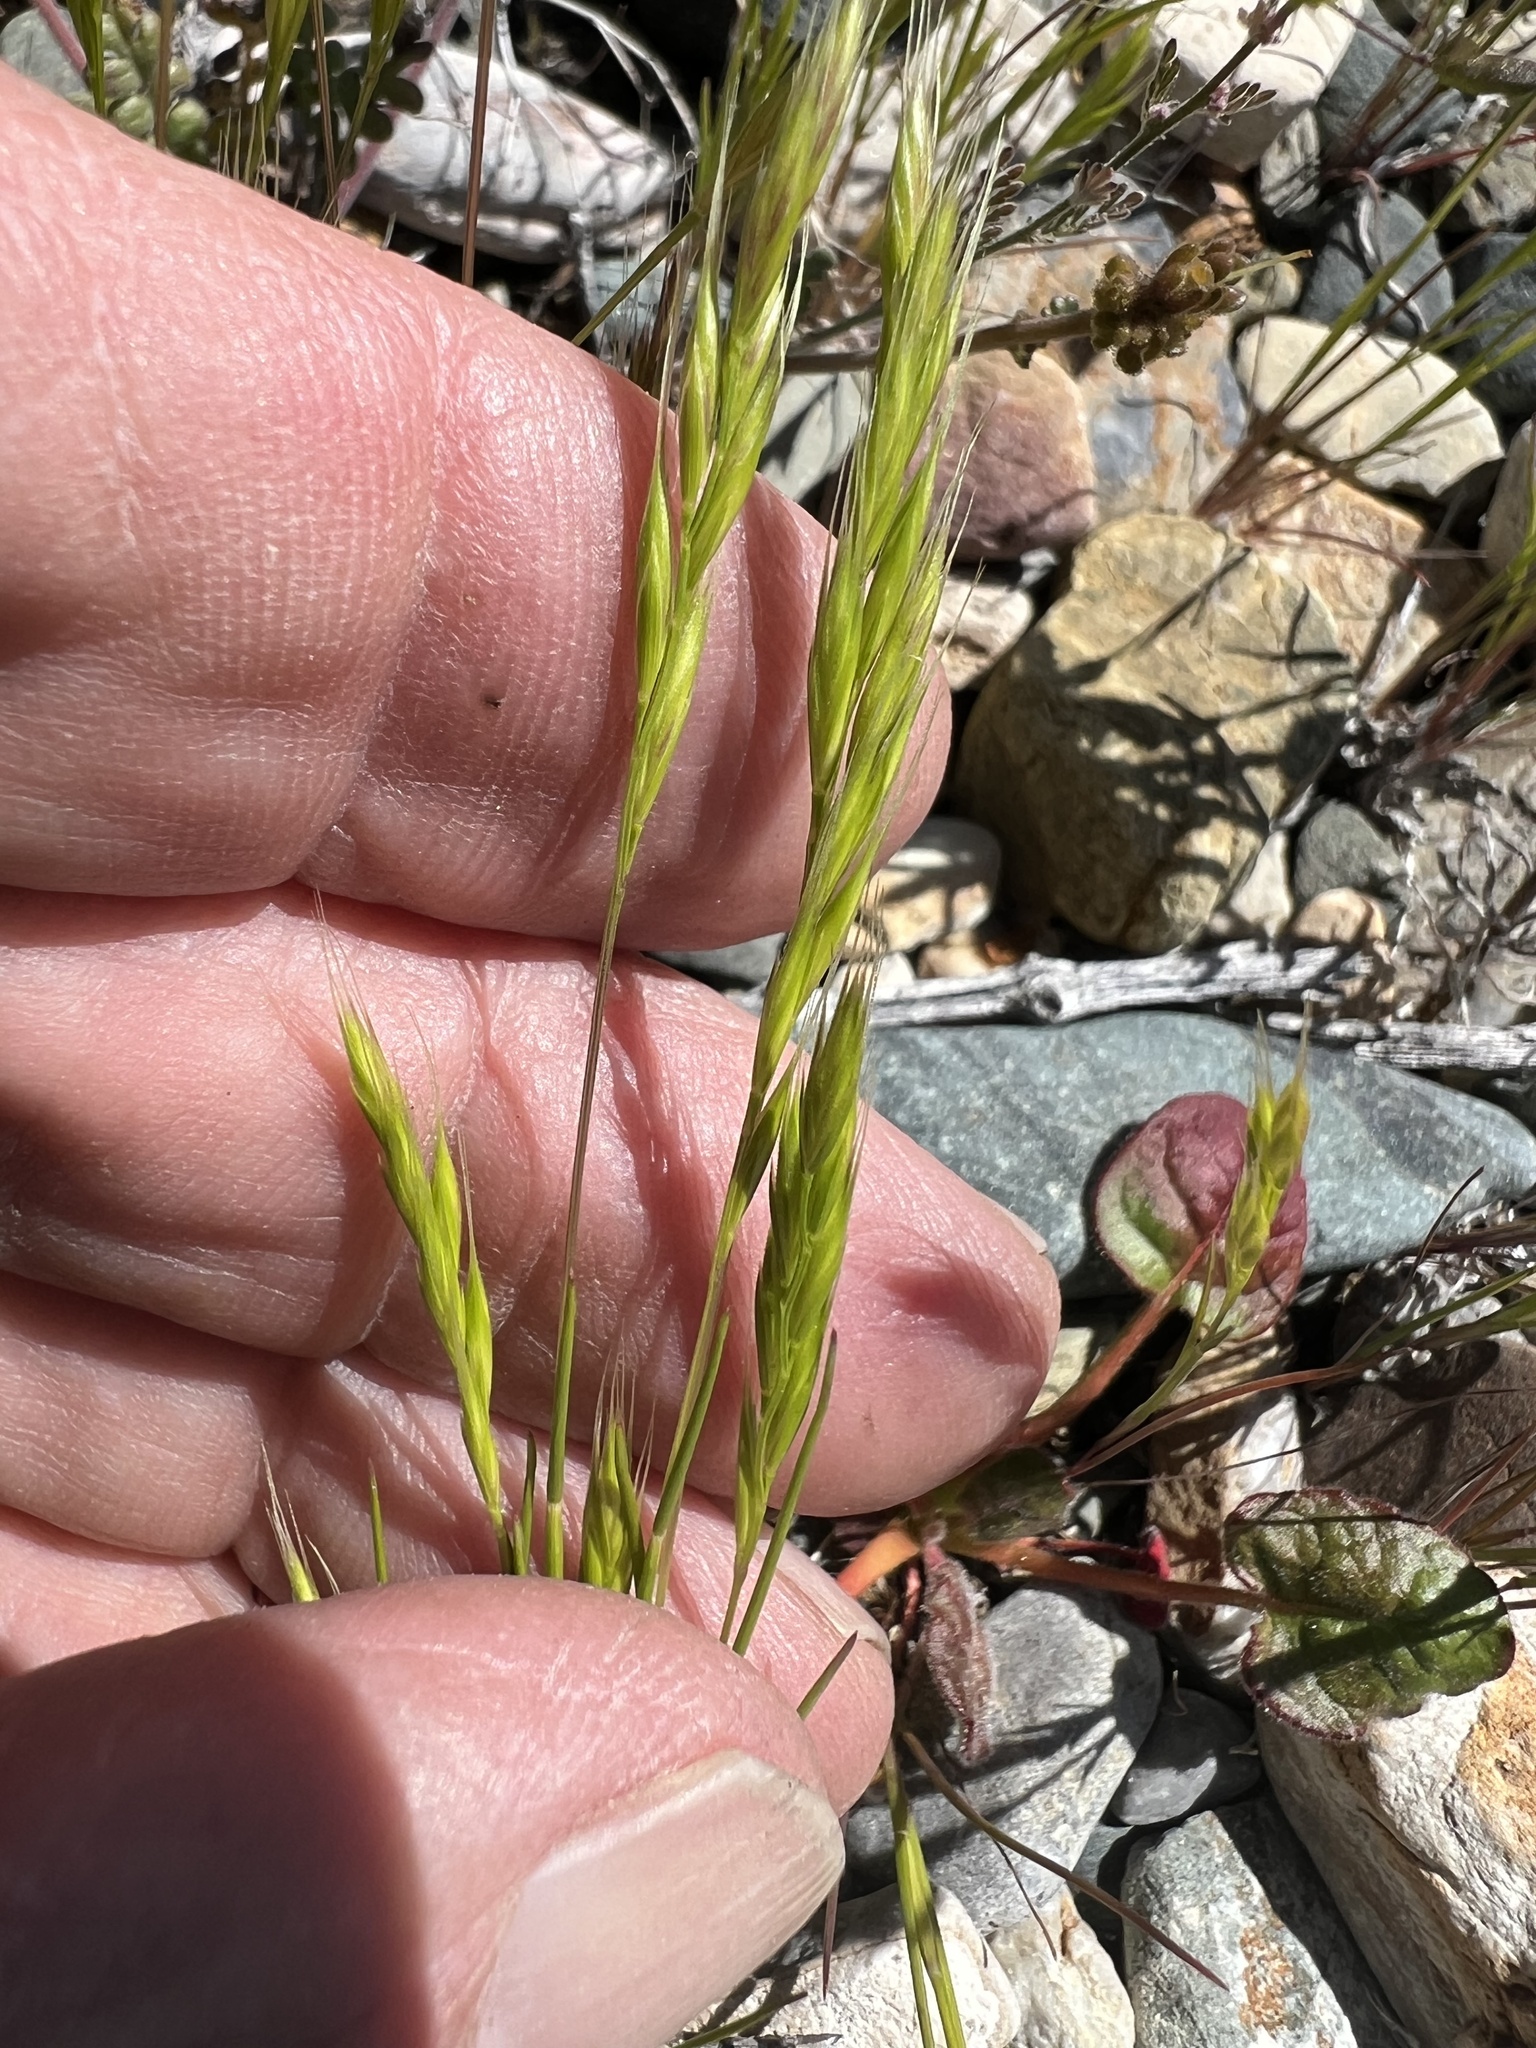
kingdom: Plantae
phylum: Tracheophyta
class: Liliopsida
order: Poales
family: Poaceae
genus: Festuca
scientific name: Festuca octoflora
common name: Sixweeks grass
